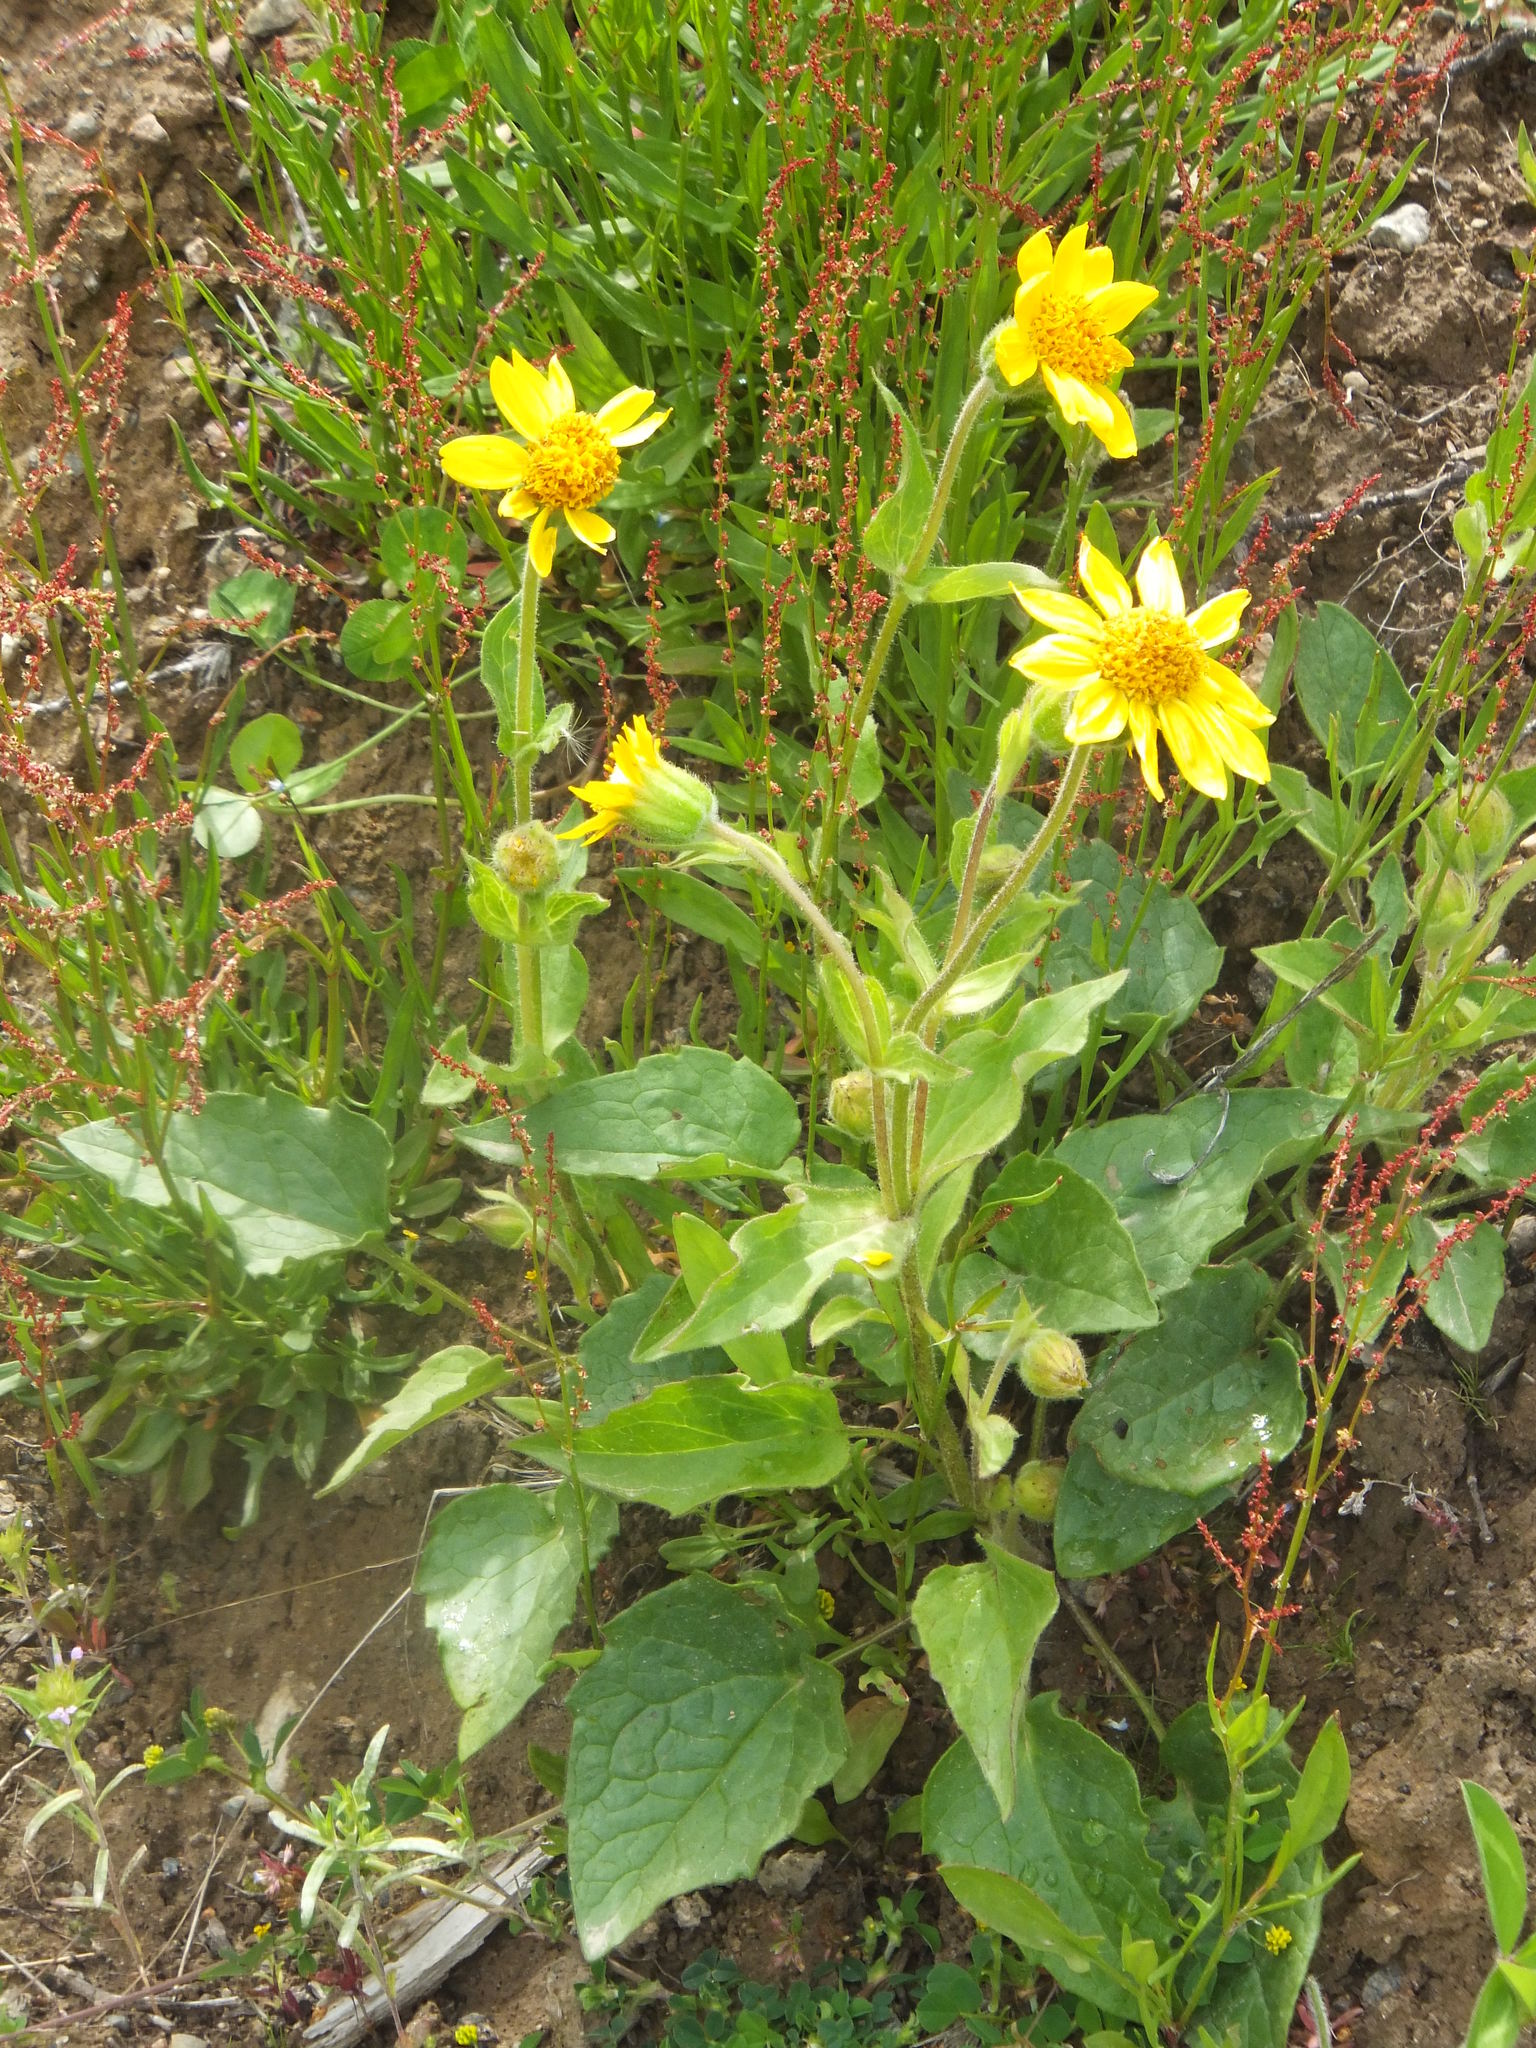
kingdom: Plantae
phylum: Tracheophyta
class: Magnoliopsida
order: Asterales
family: Asteraceae
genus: Arnica
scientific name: Arnica latifolia
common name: Arnica
